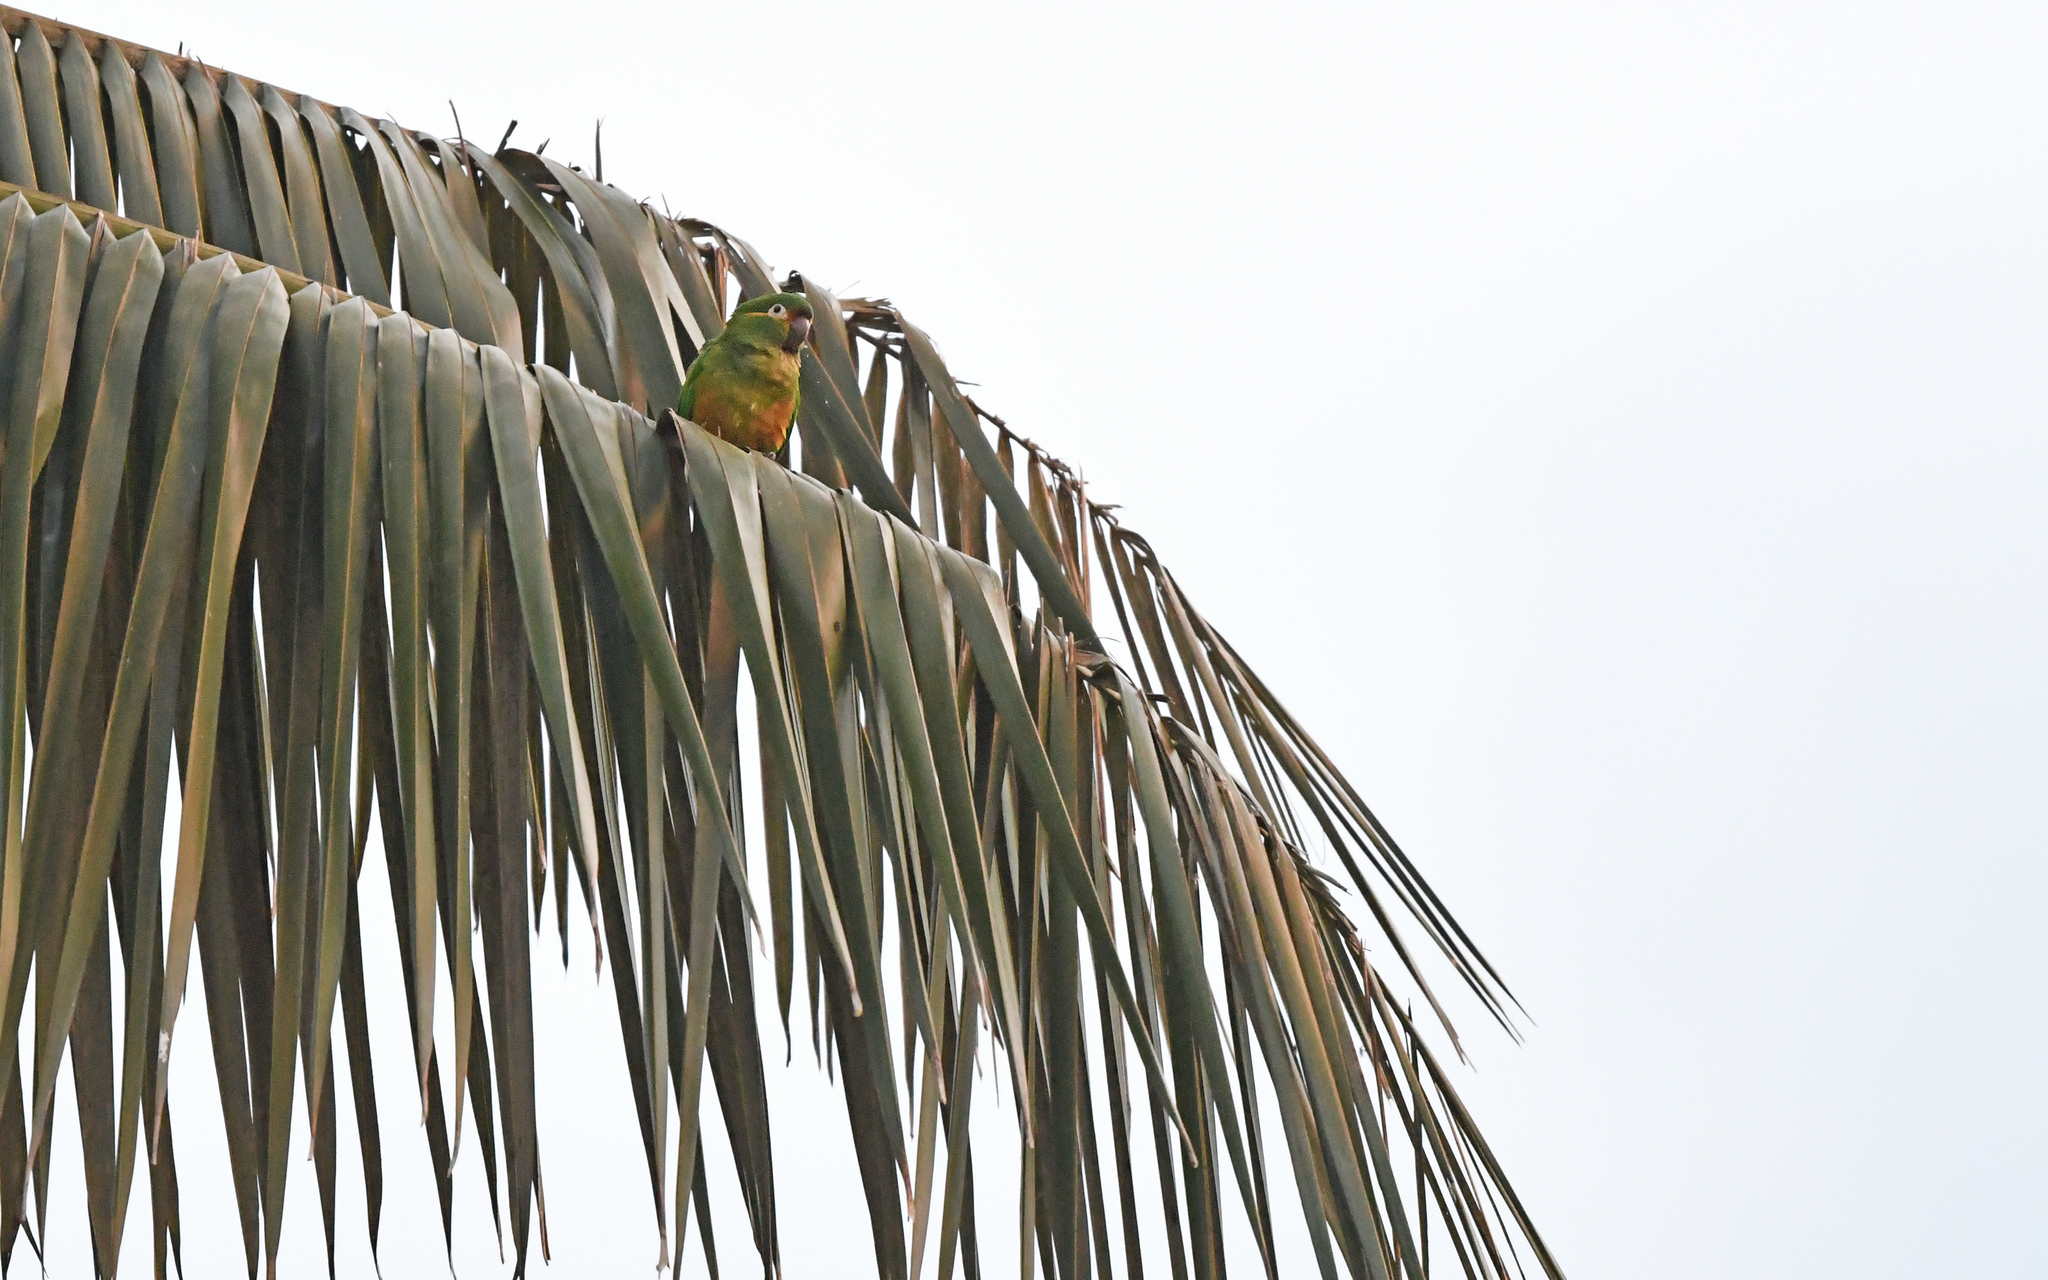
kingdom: Animalia
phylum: Chordata
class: Aves
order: Psittaciformes
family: Psittacidae
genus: Leptosittaca
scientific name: Leptosittaca branickii
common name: Golden-plumed parakeet
